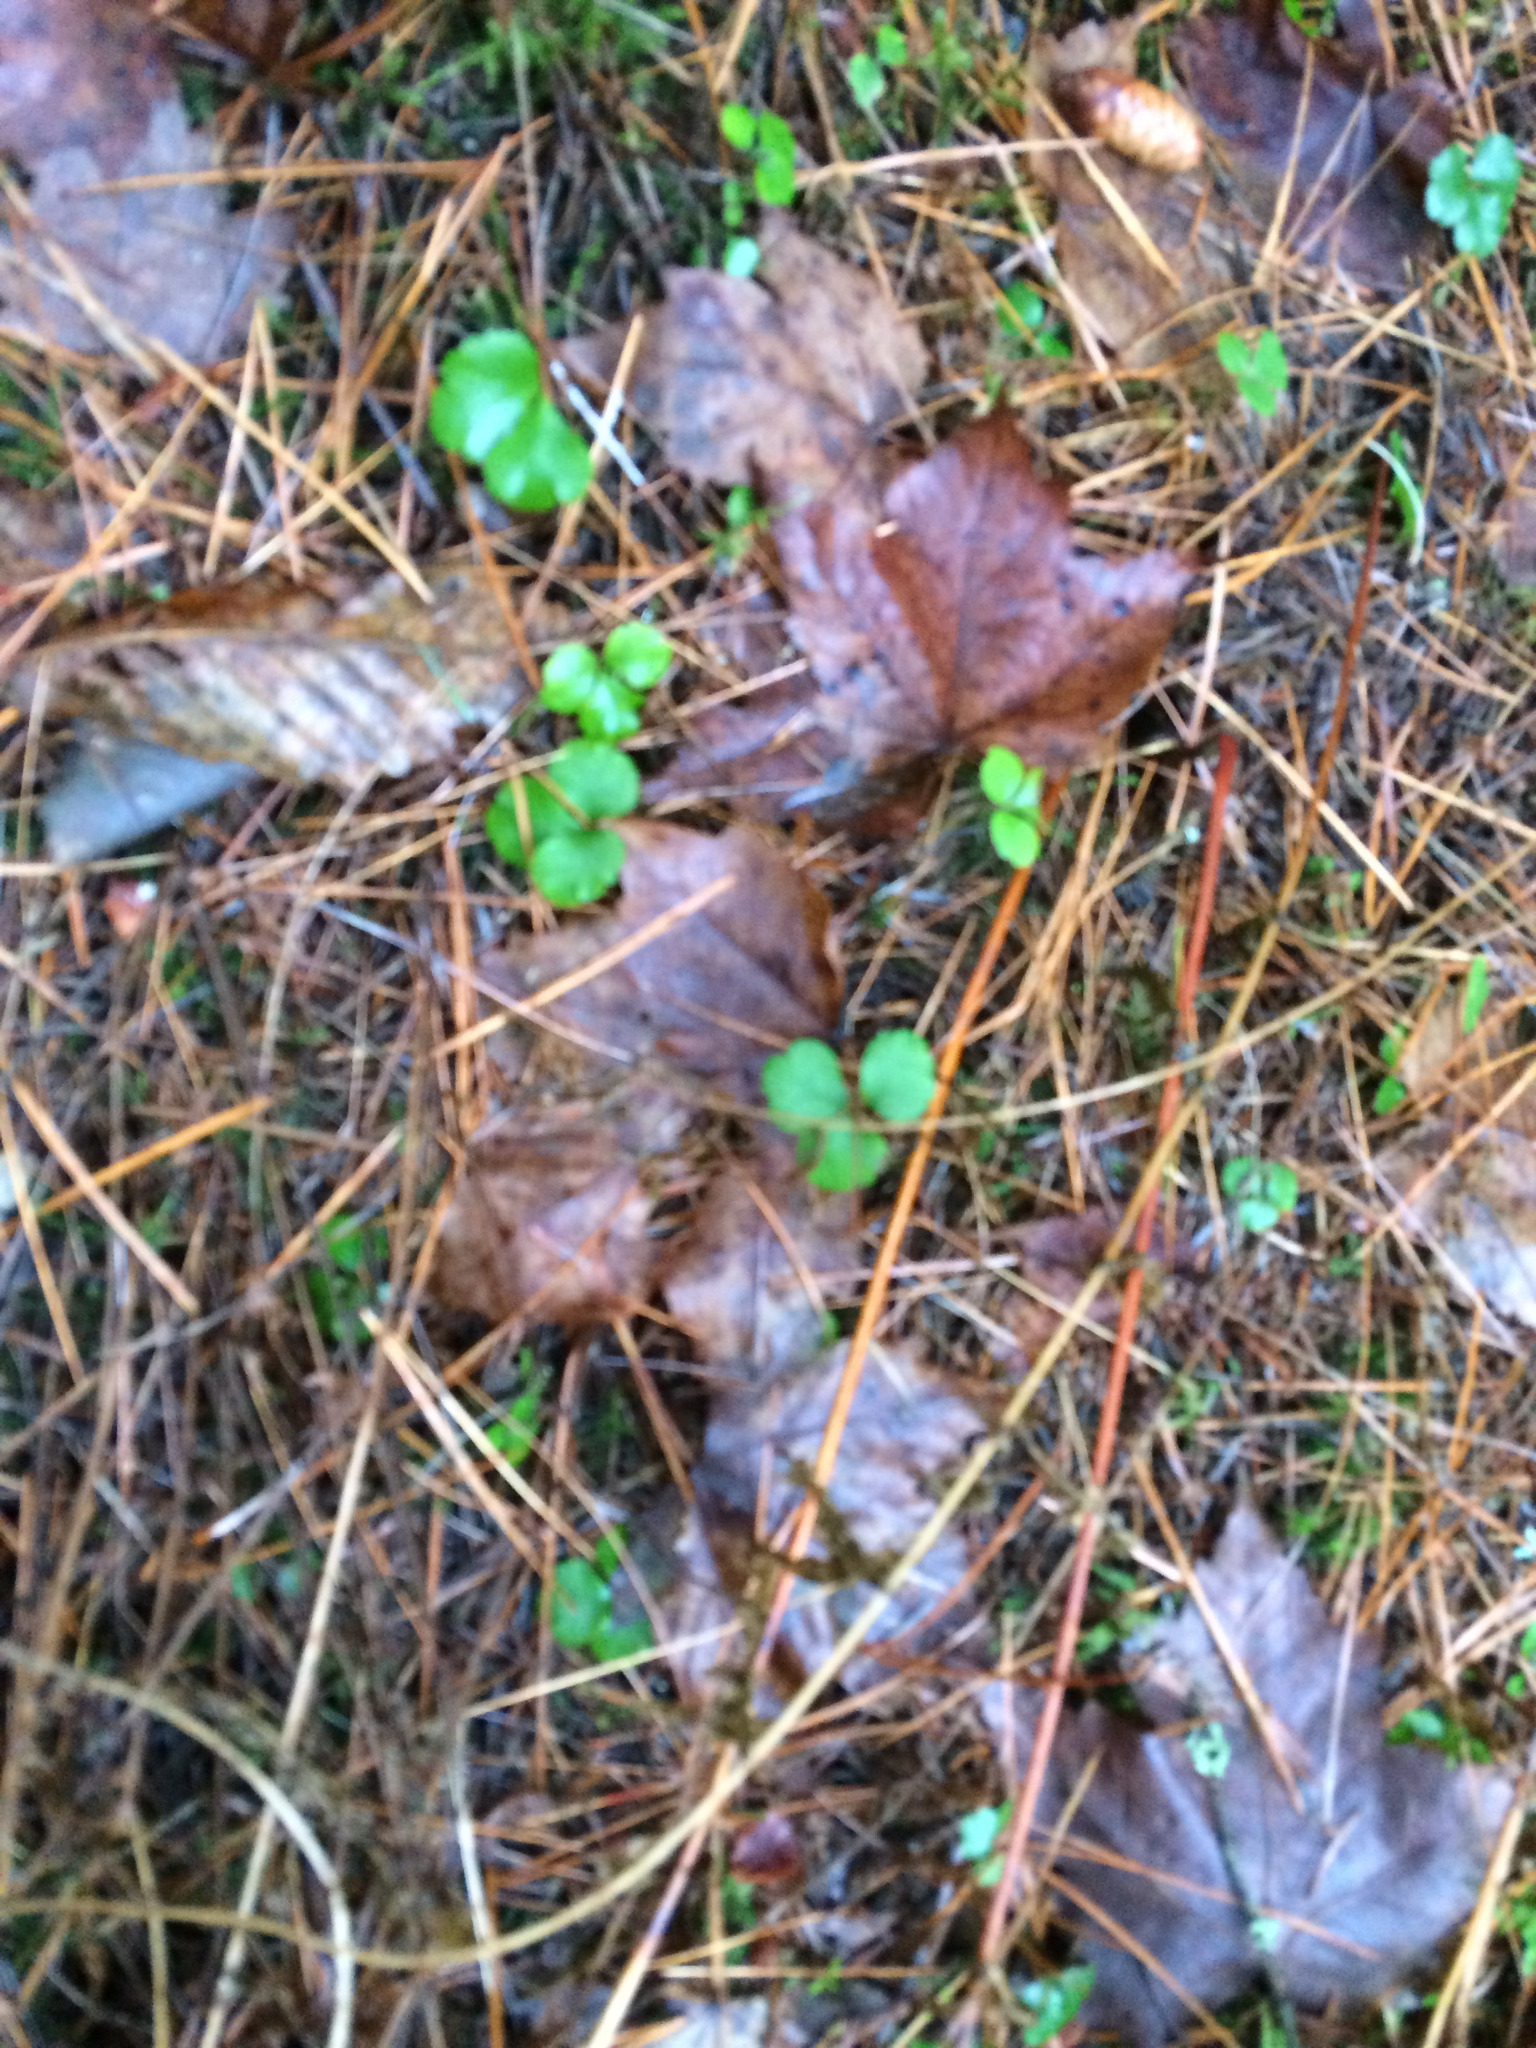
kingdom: Plantae
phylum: Tracheophyta
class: Magnoliopsida
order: Ranunculales
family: Ranunculaceae
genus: Coptis
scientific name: Coptis trifolia
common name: Canker-root
